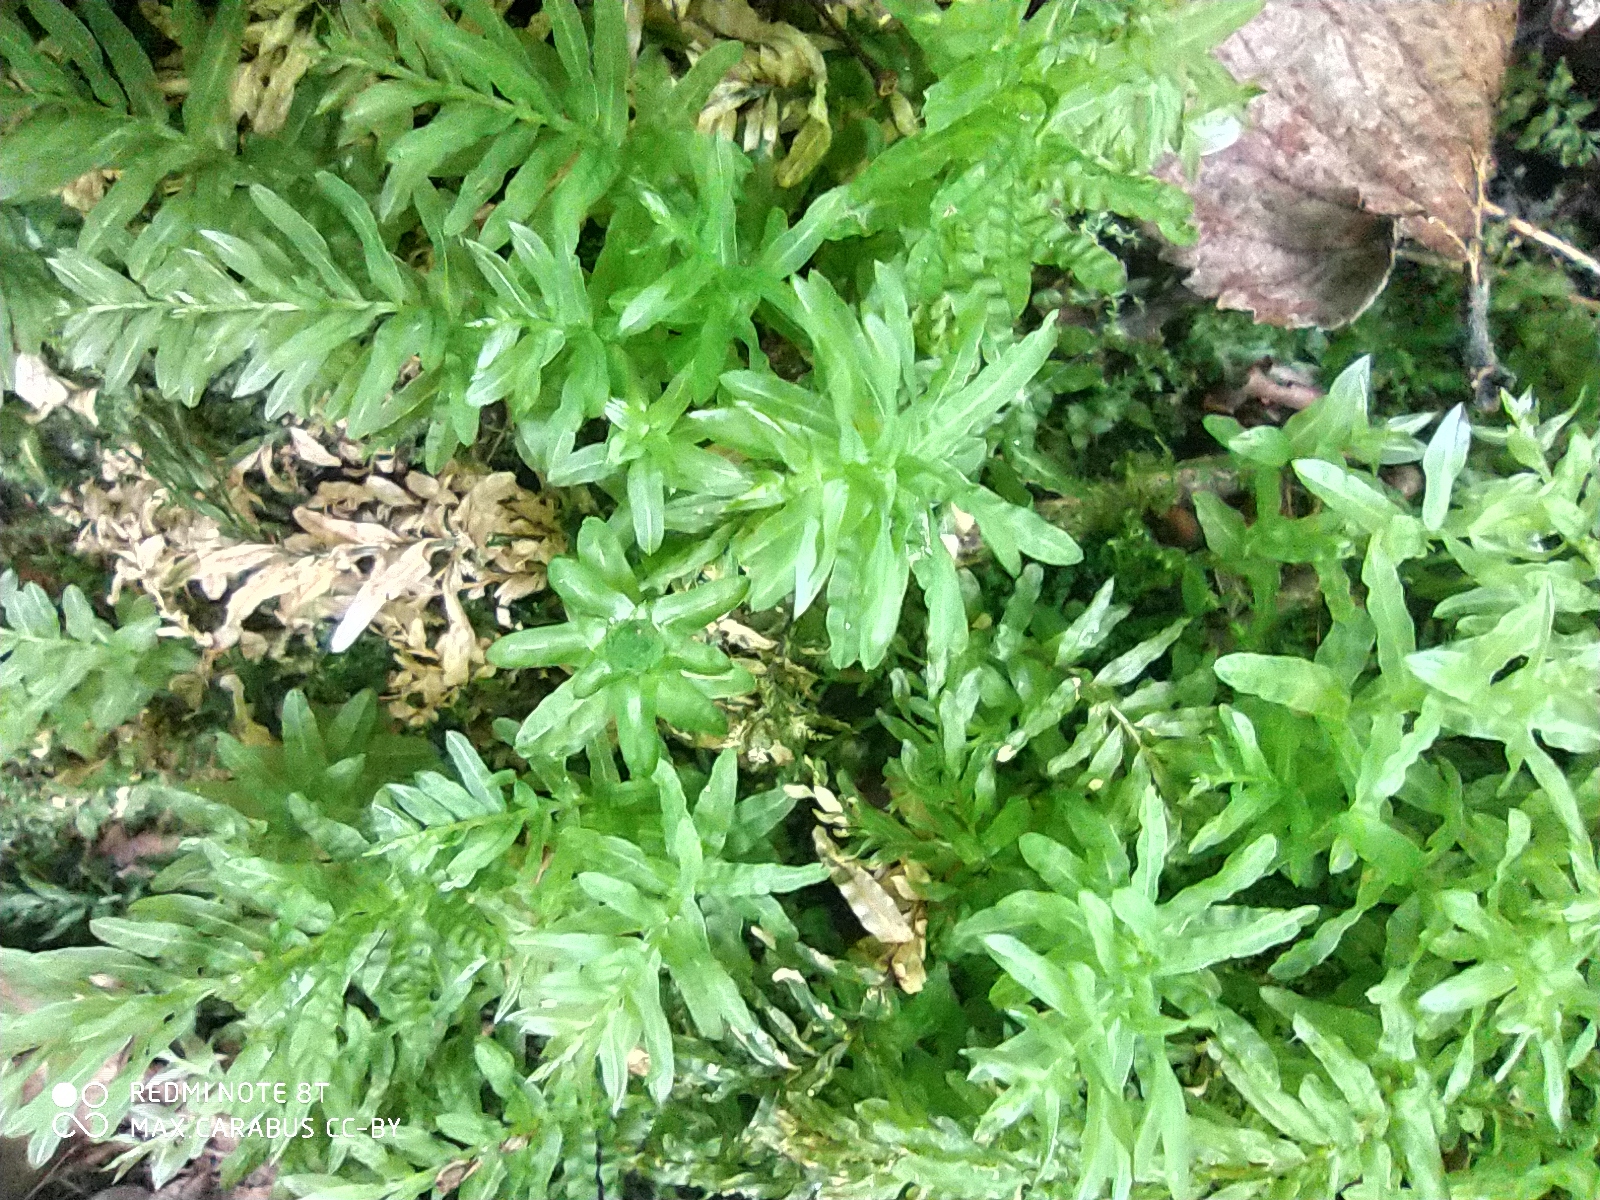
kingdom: Plantae
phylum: Bryophyta
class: Bryopsida
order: Bryales
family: Mniaceae
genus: Plagiomnium
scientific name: Plagiomnium undulatum
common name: Hart's-tongue thyme-moss
